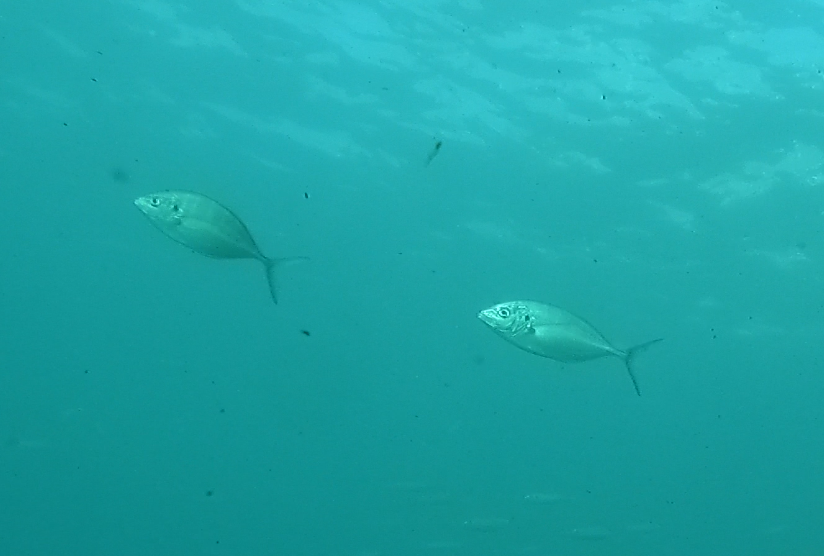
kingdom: Animalia
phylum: Chordata
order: Perciformes
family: Carangidae
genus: Pseudocaranx
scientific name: Pseudocaranx dentex
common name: White trevally
